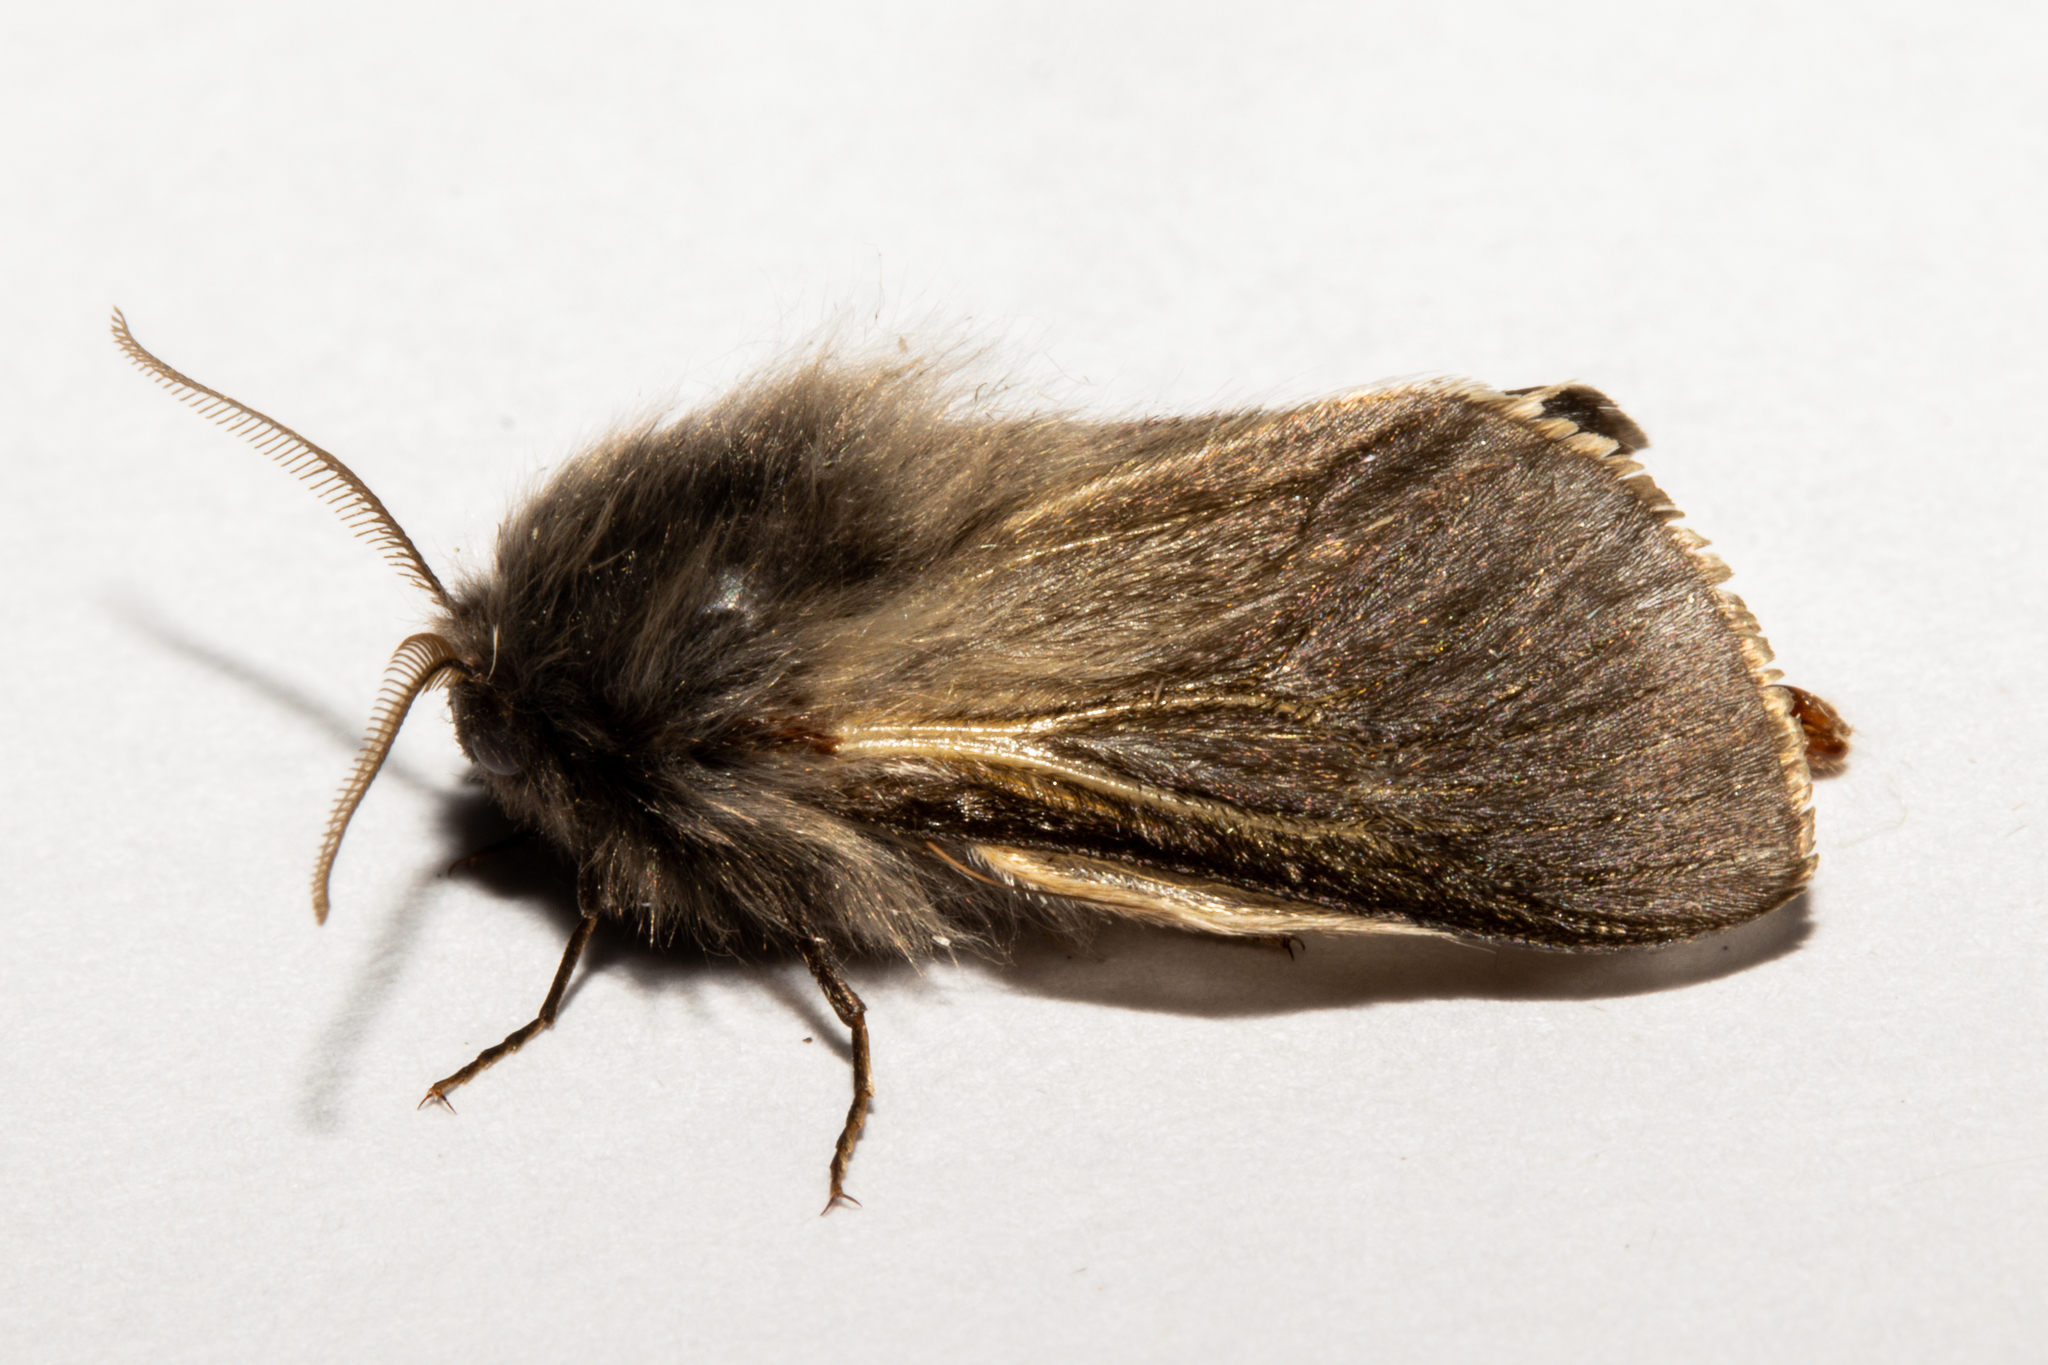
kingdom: Animalia
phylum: Arthropoda
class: Insecta
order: Lepidoptera
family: Psychidae
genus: Orophora
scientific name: Orophora unicolor
